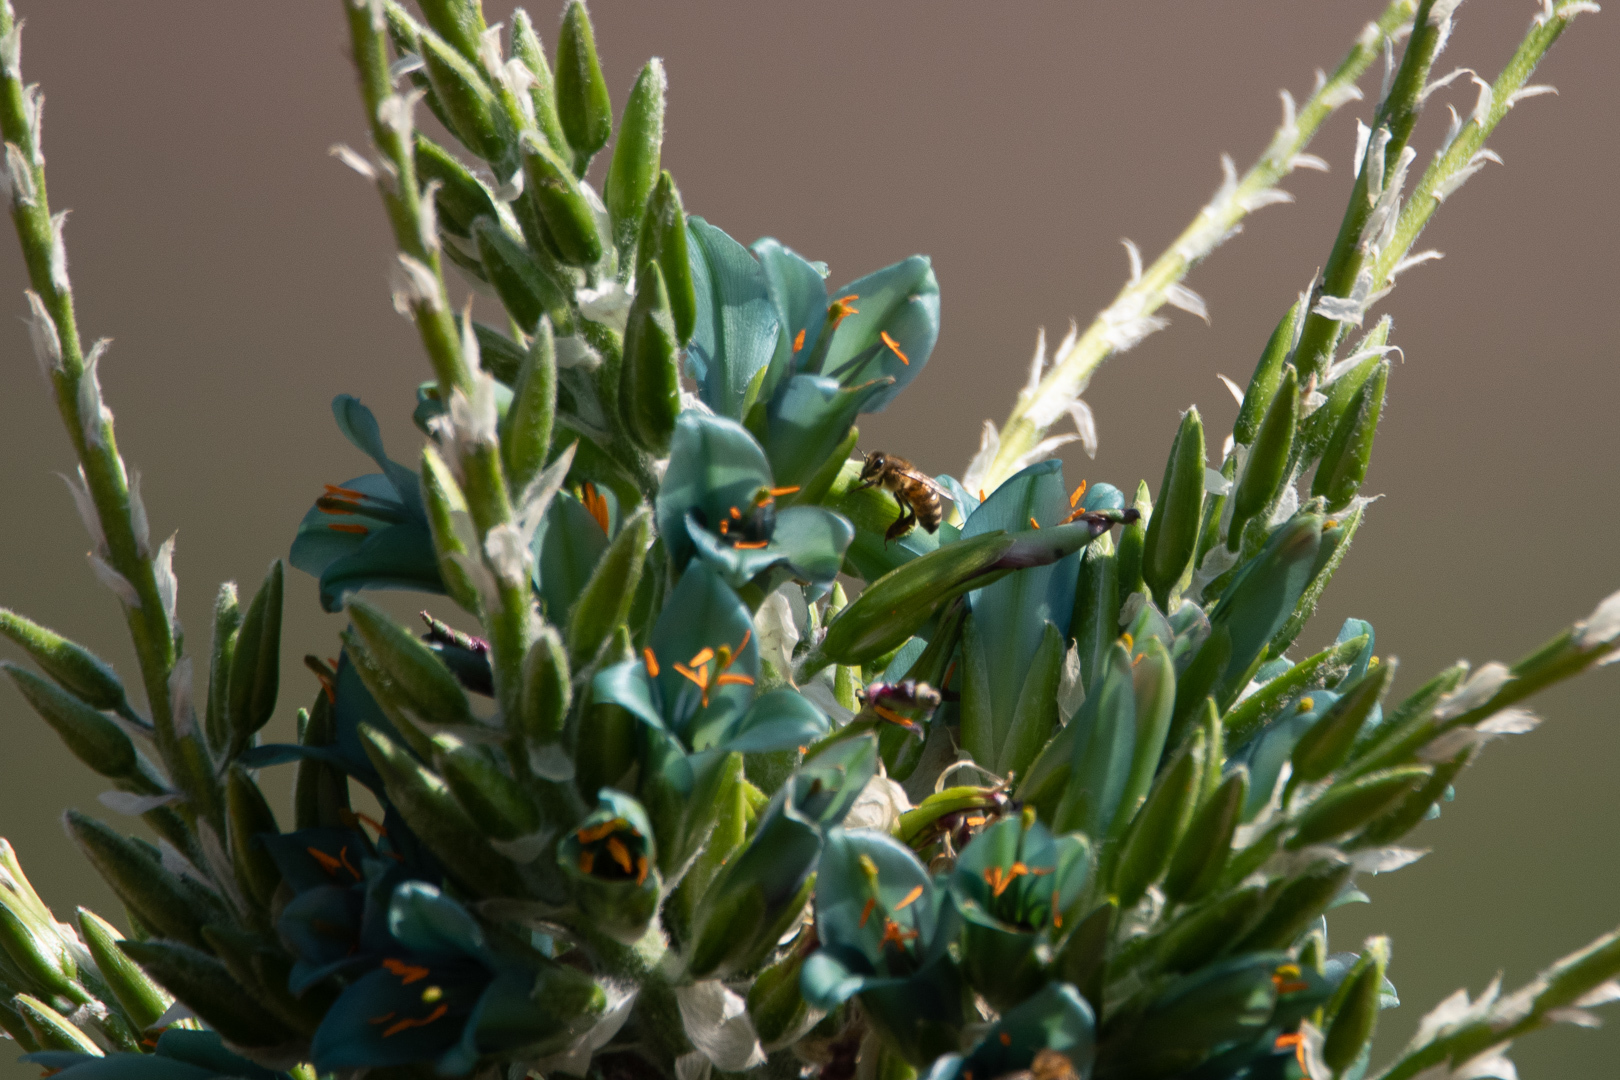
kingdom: Plantae
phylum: Tracheophyta
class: Liliopsida
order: Poales
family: Bromeliaceae
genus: Puya
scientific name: Puya alpestris
